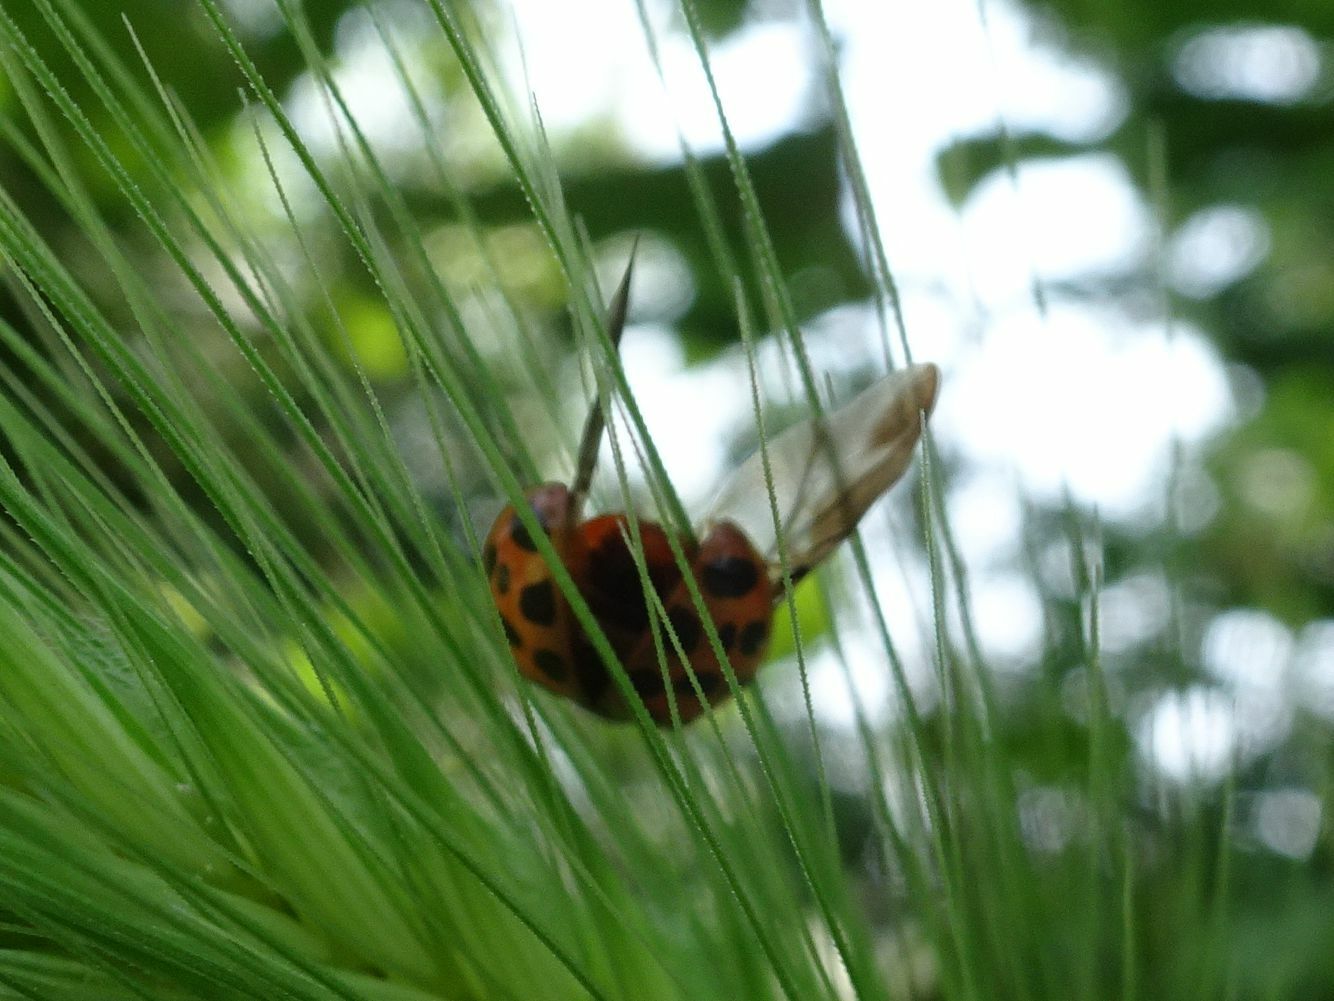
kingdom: Animalia
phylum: Arthropoda
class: Insecta
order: Coleoptera
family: Coccinellidae
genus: Harmonia
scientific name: Harmonia axyridis
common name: Harlequin ladybird
